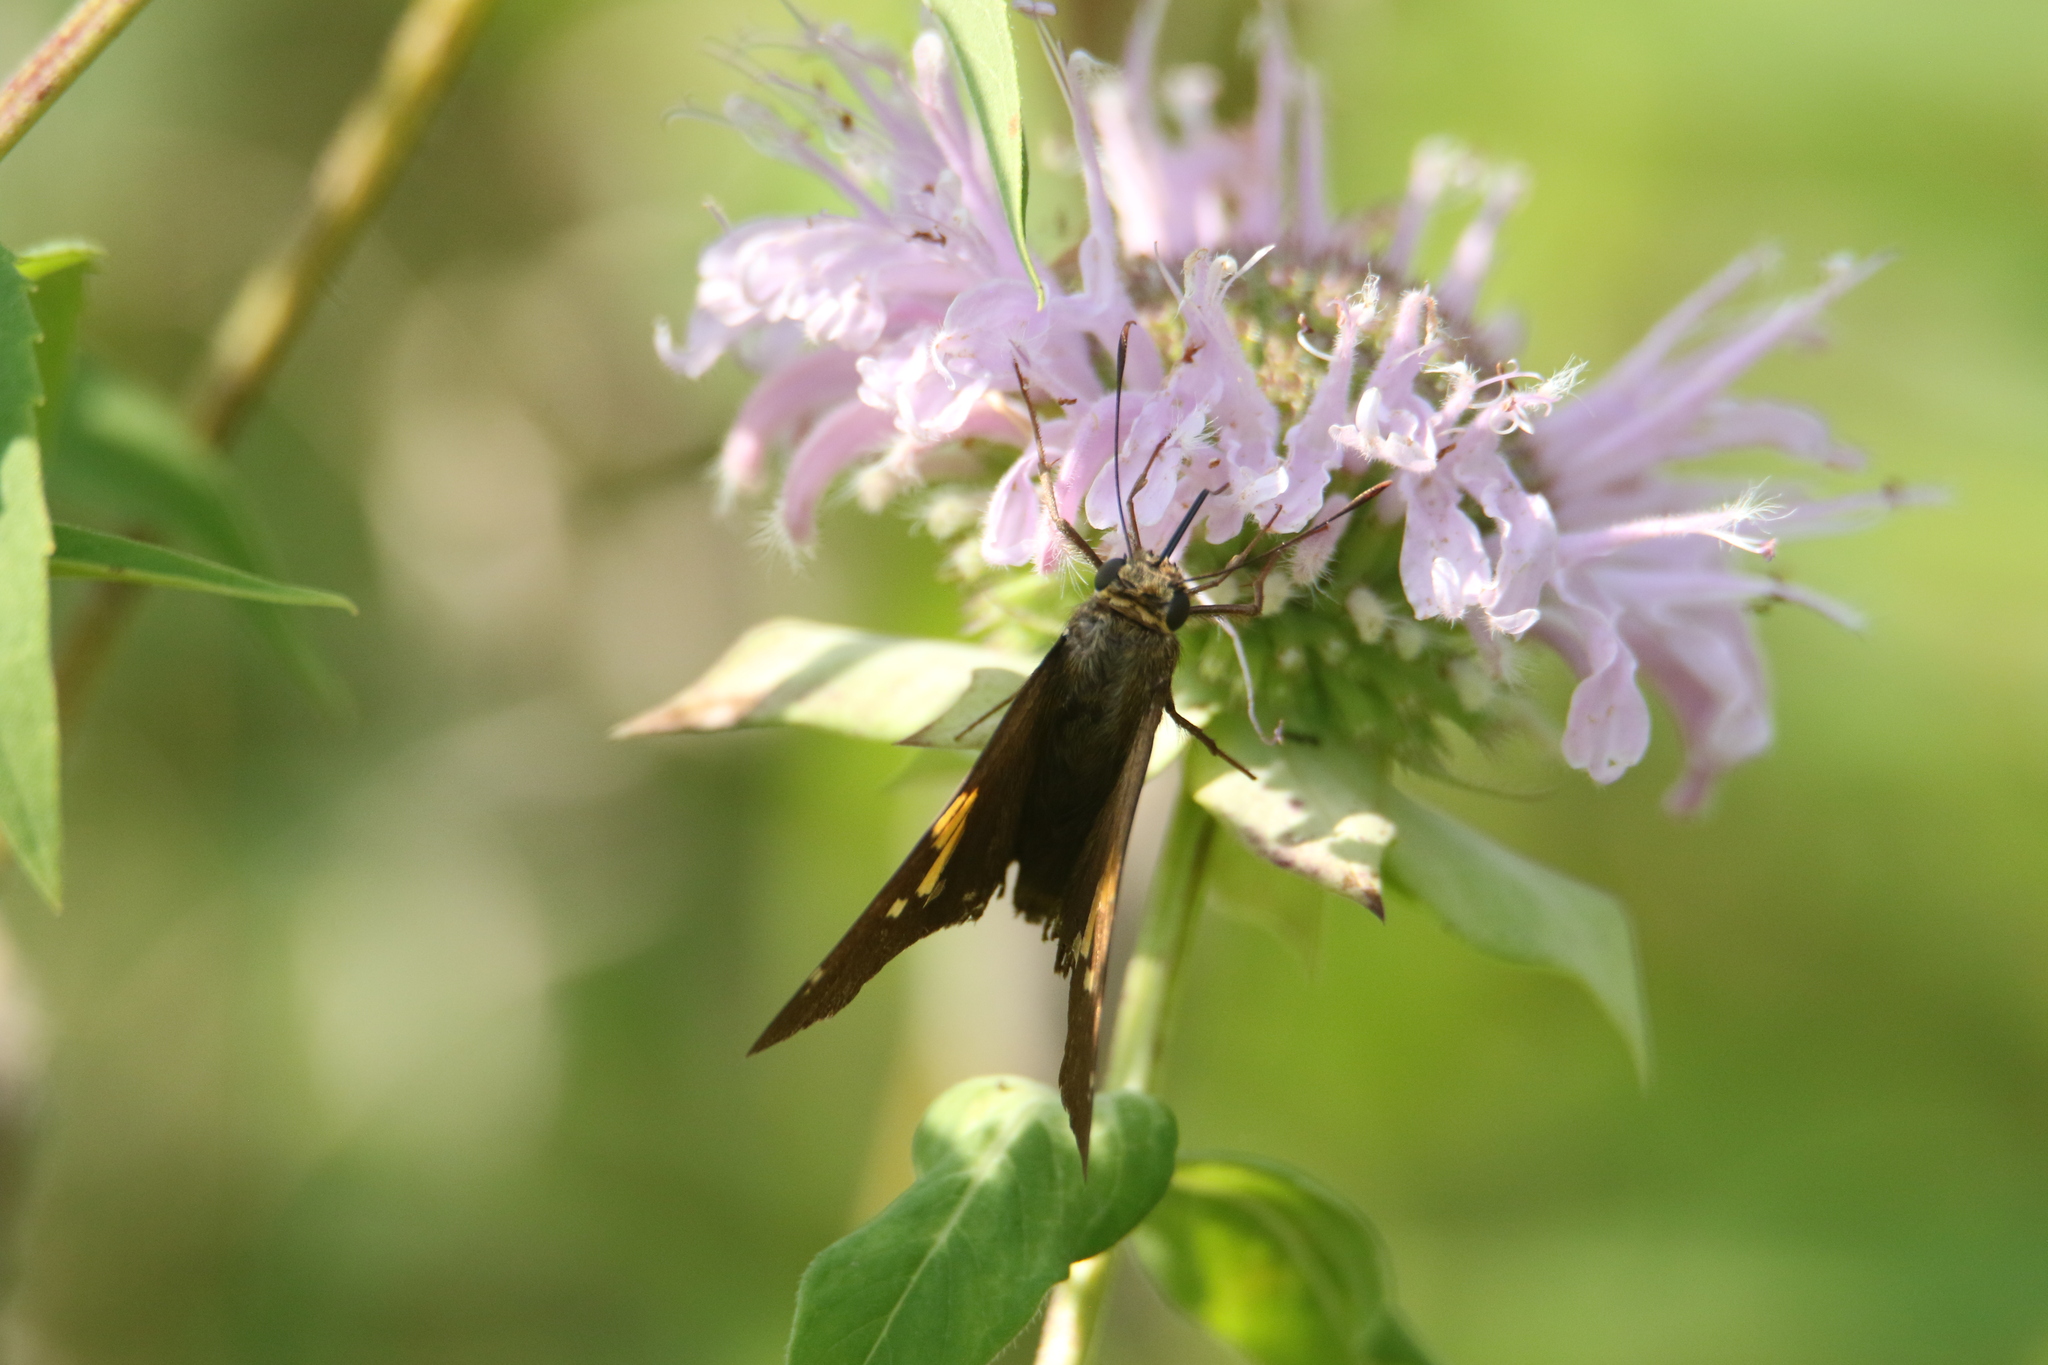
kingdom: Animalia
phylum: Arthropoda
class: Insecta
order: Lepidoptera
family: Hesperiidae
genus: Epargyreus
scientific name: Epargyreus clarus
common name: Silver-spotted skipper
